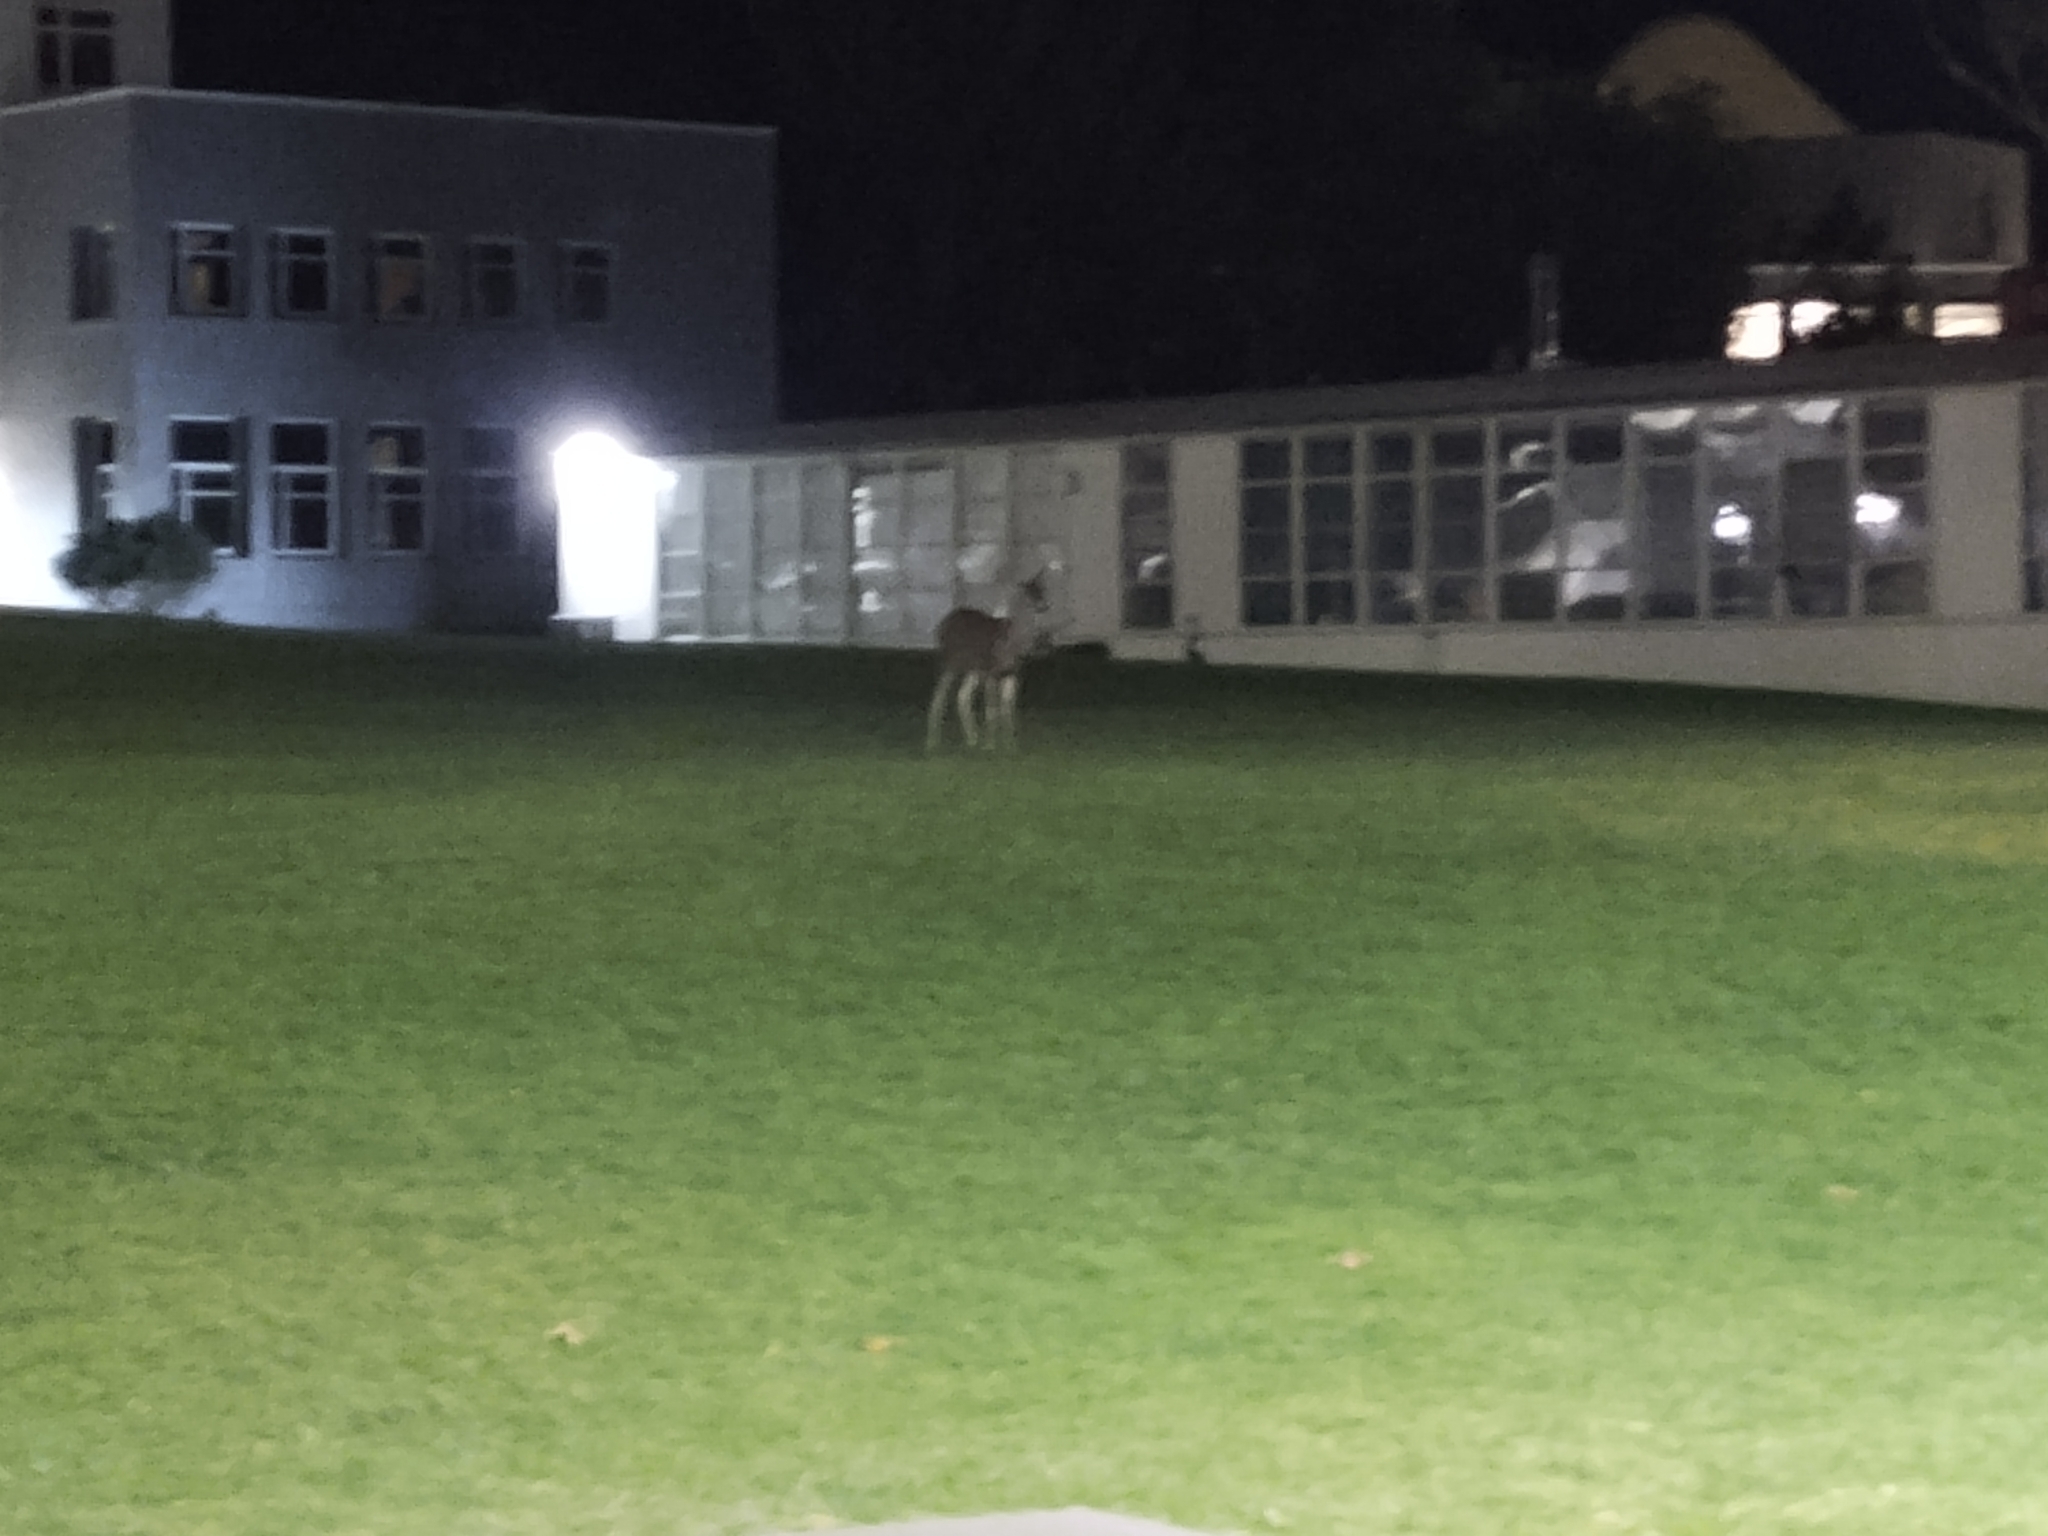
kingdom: Animalia
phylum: Chordata
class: Mammalia
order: Artiodactyla
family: Cervidae
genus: Odocoileus
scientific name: Odocoileus hemionus
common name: Mule deer
